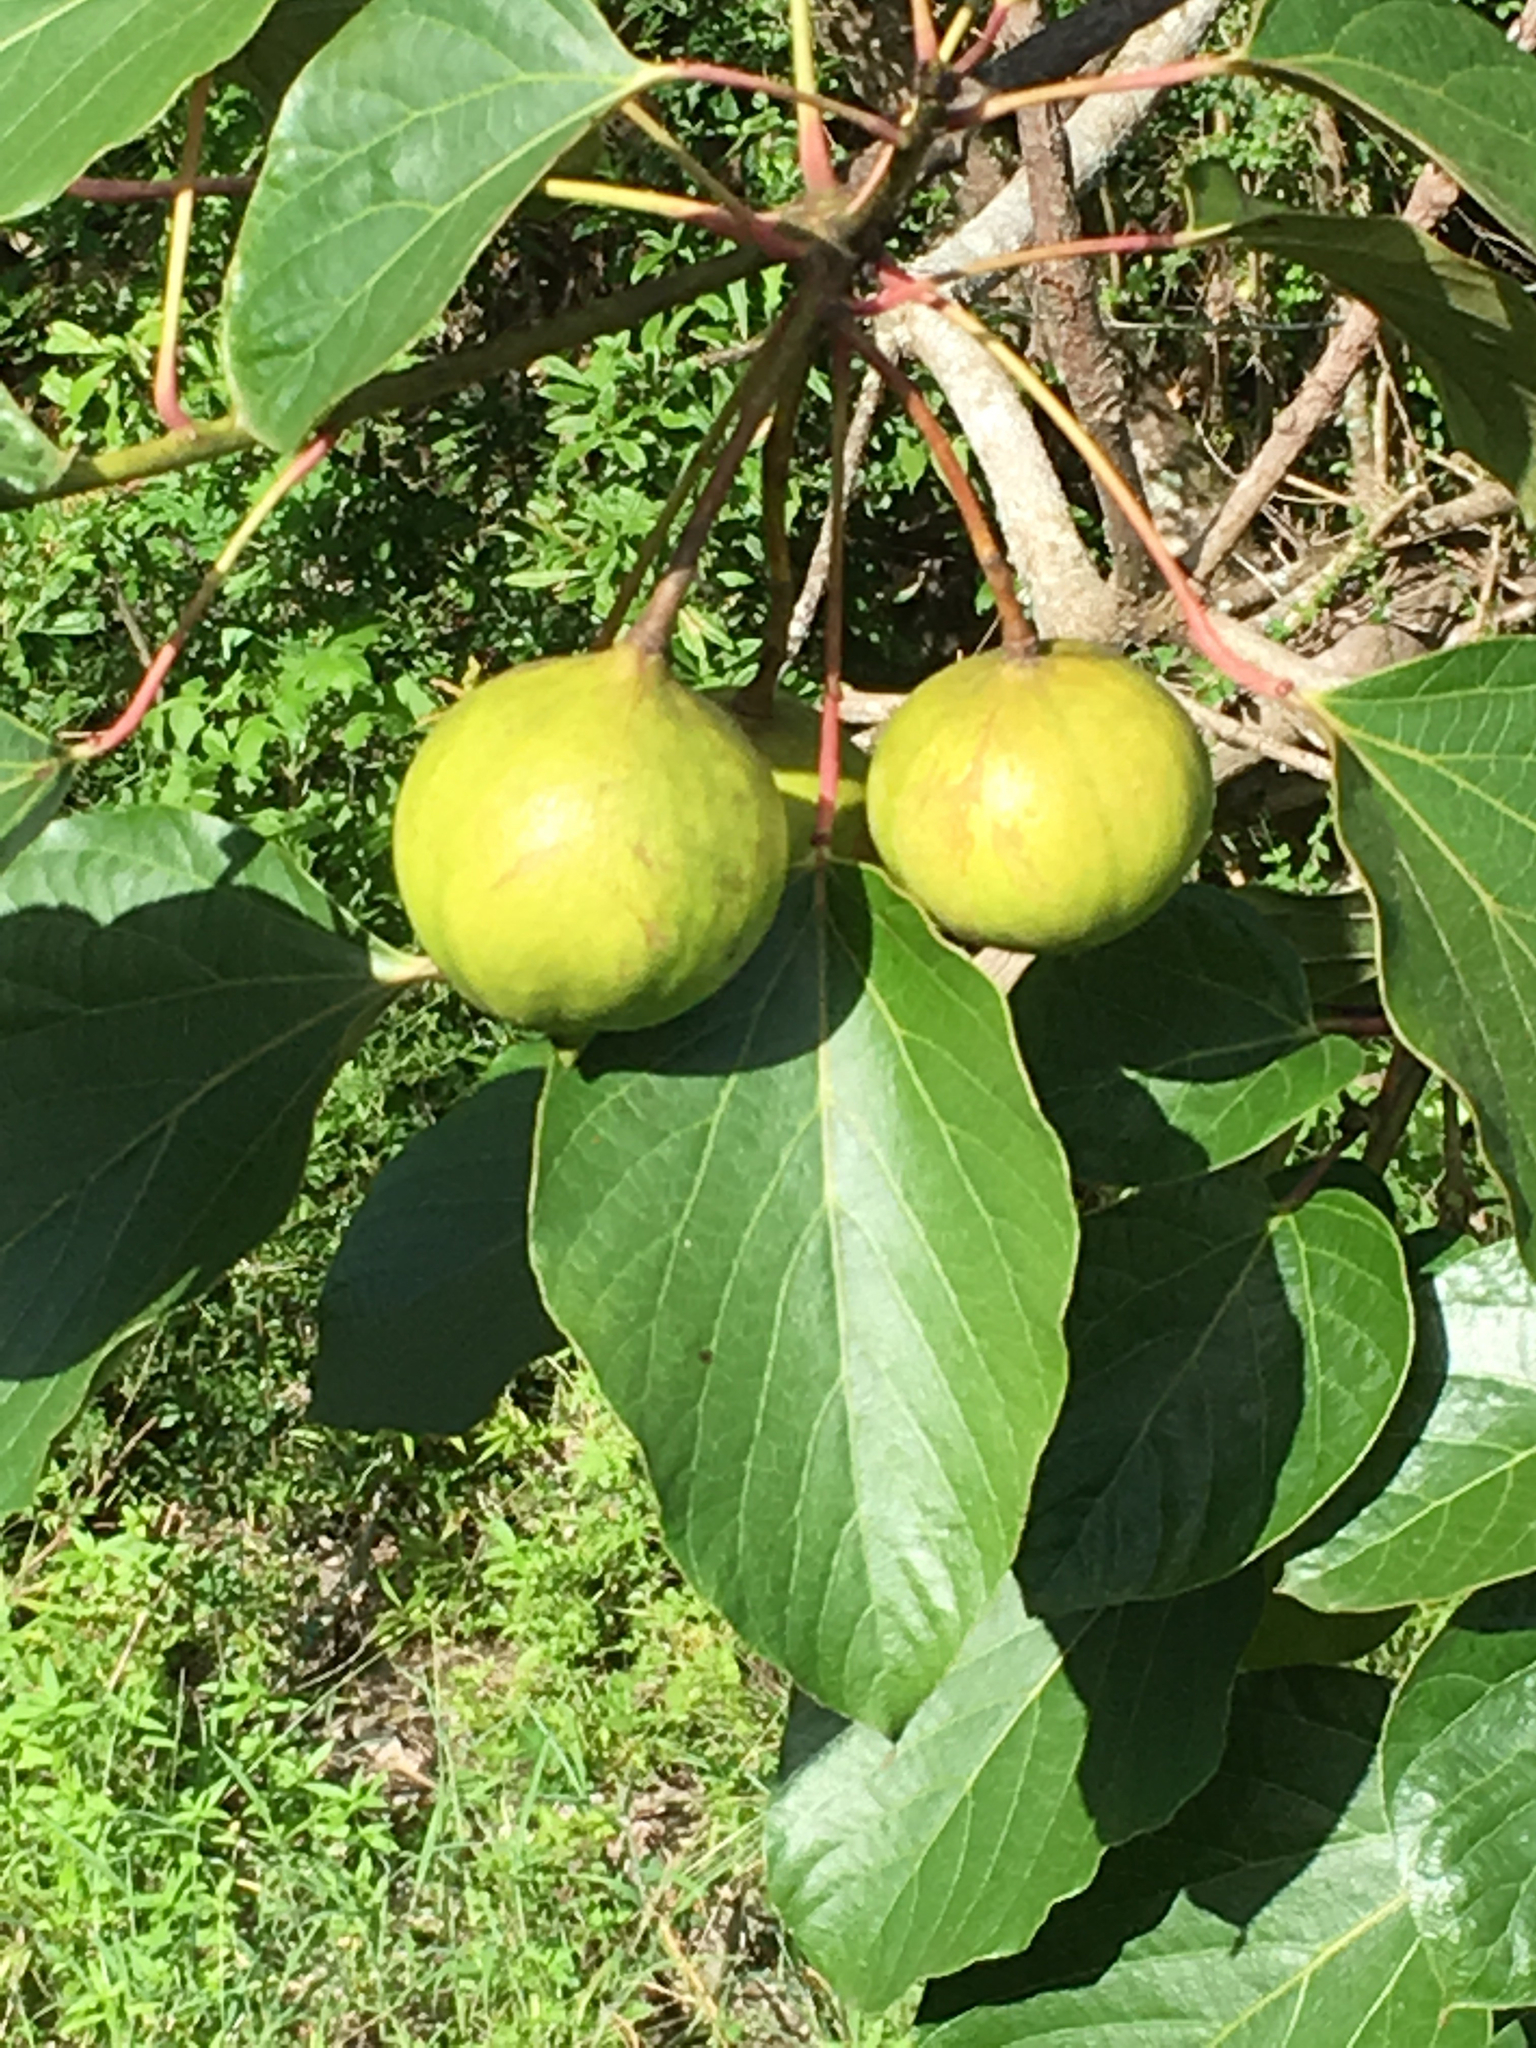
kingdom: Plantae
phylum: Tracheophyta
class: Magnoliopsida
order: Malpighiales
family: Euphorbiaceae
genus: Vernicia
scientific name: Vernicia fordii
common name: Tungoil tree
